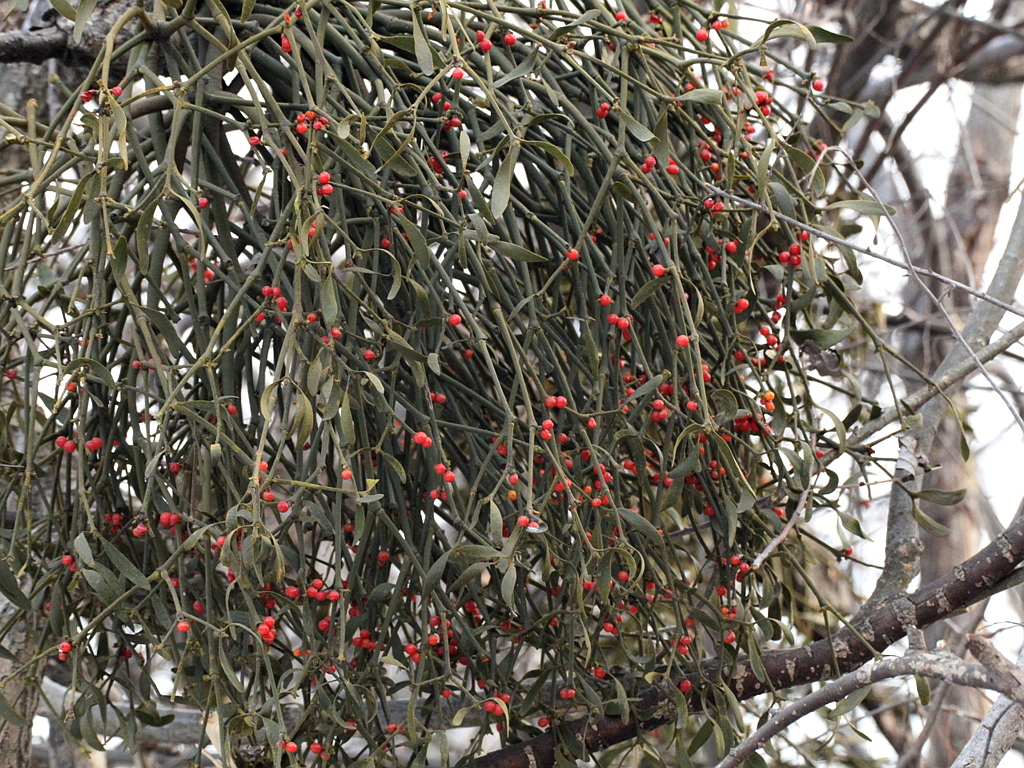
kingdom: Plantae
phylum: Tracheophyta
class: Magnoliopsida
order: Santalales
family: Viscaceae
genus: Viscum
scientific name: Viscum coloratum
